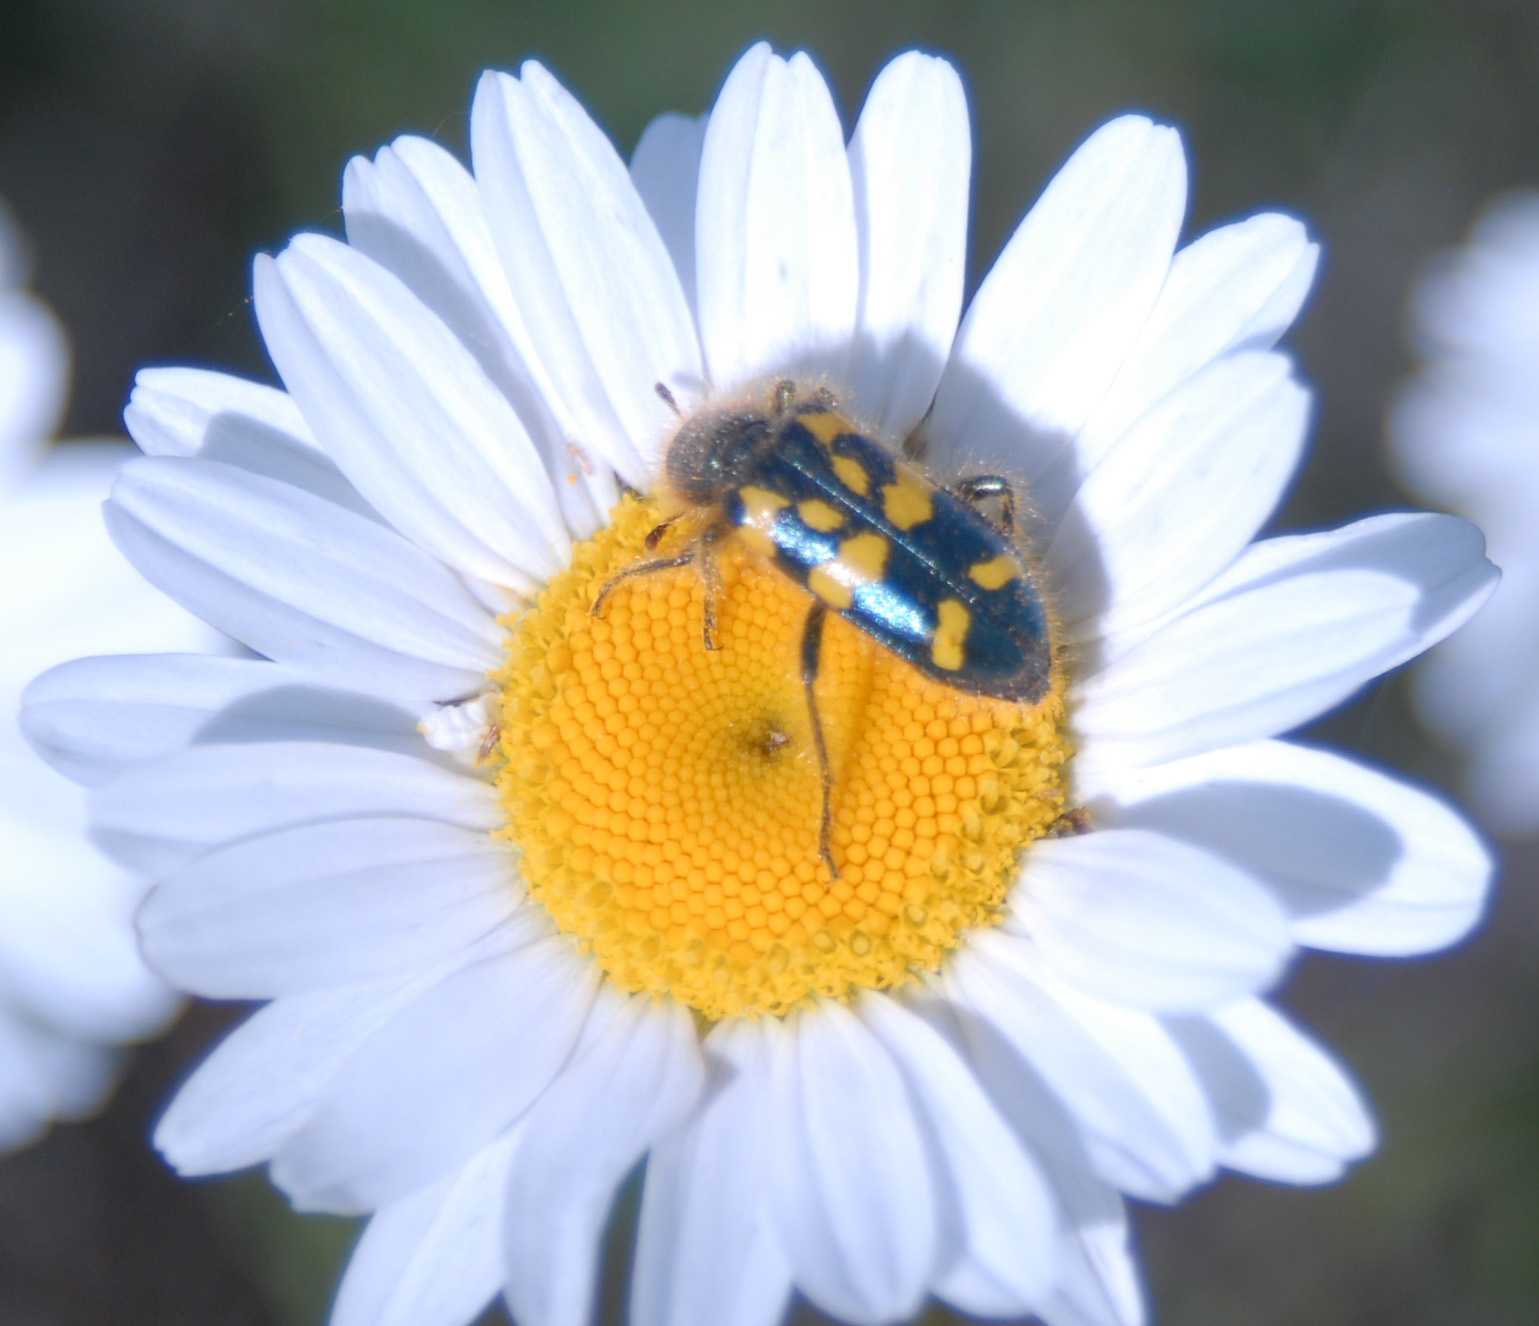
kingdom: Animalia
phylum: Arthropoda
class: Insecta
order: Coleoptera
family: Cleridae
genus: Trichodes
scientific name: Trichodes ornatus
